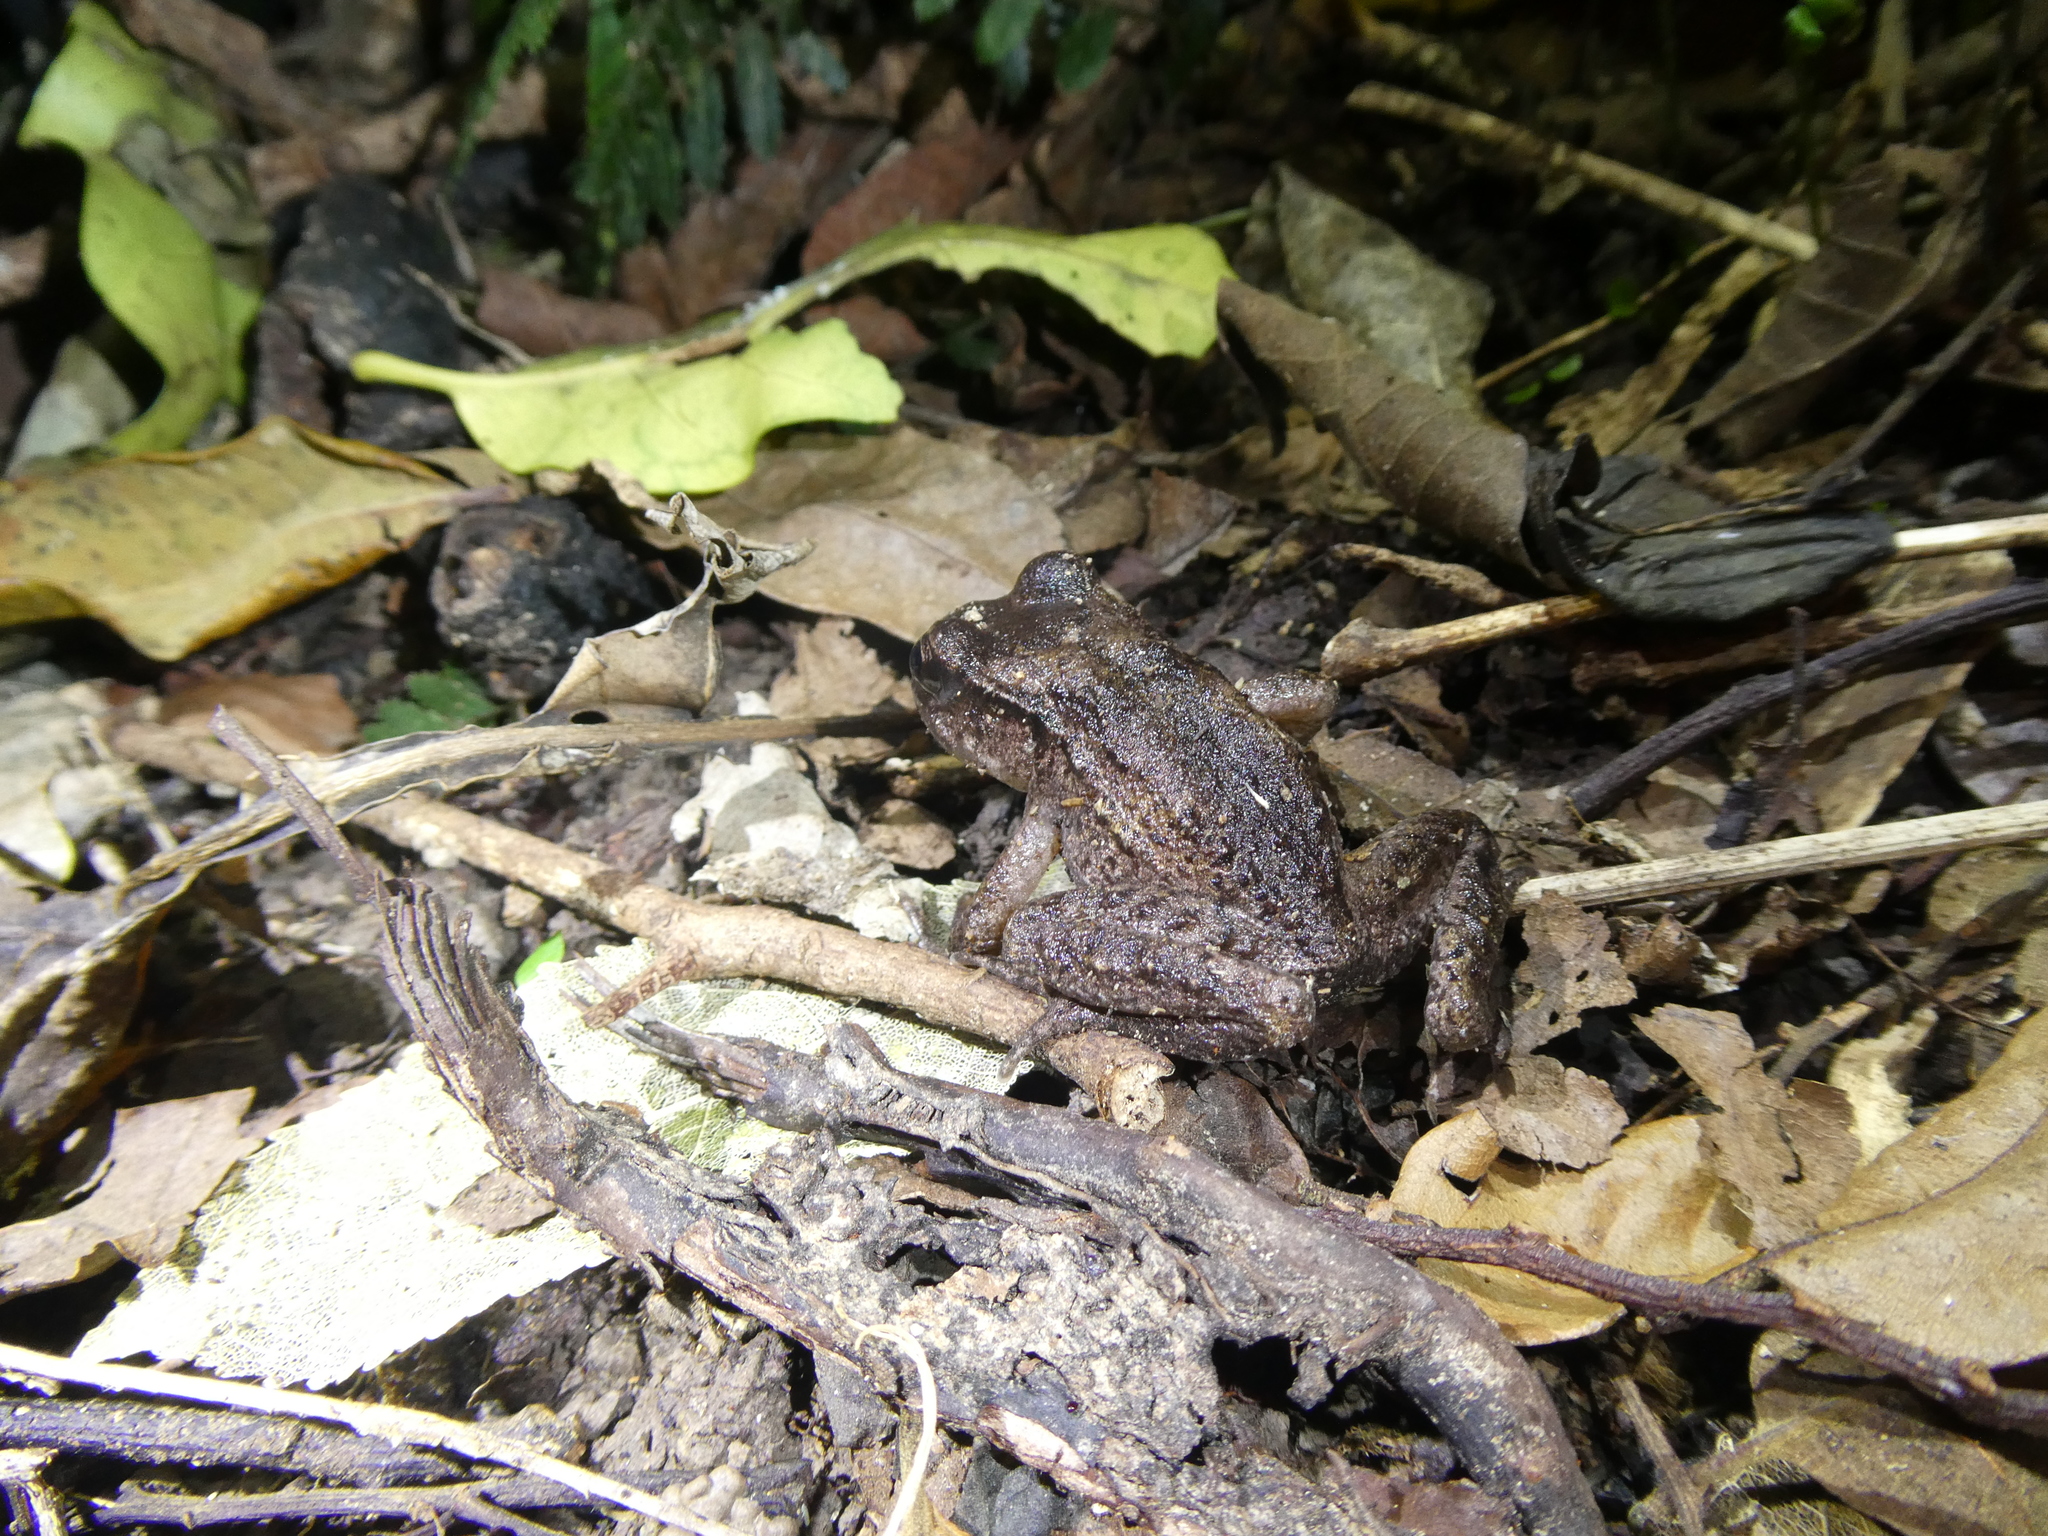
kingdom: Animalia
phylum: Chordata
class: Amphibia
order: Anura
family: Leiopelmatidae
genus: Leiopelma
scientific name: Leiopelma hamiltoni
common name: Hamiltons frog
